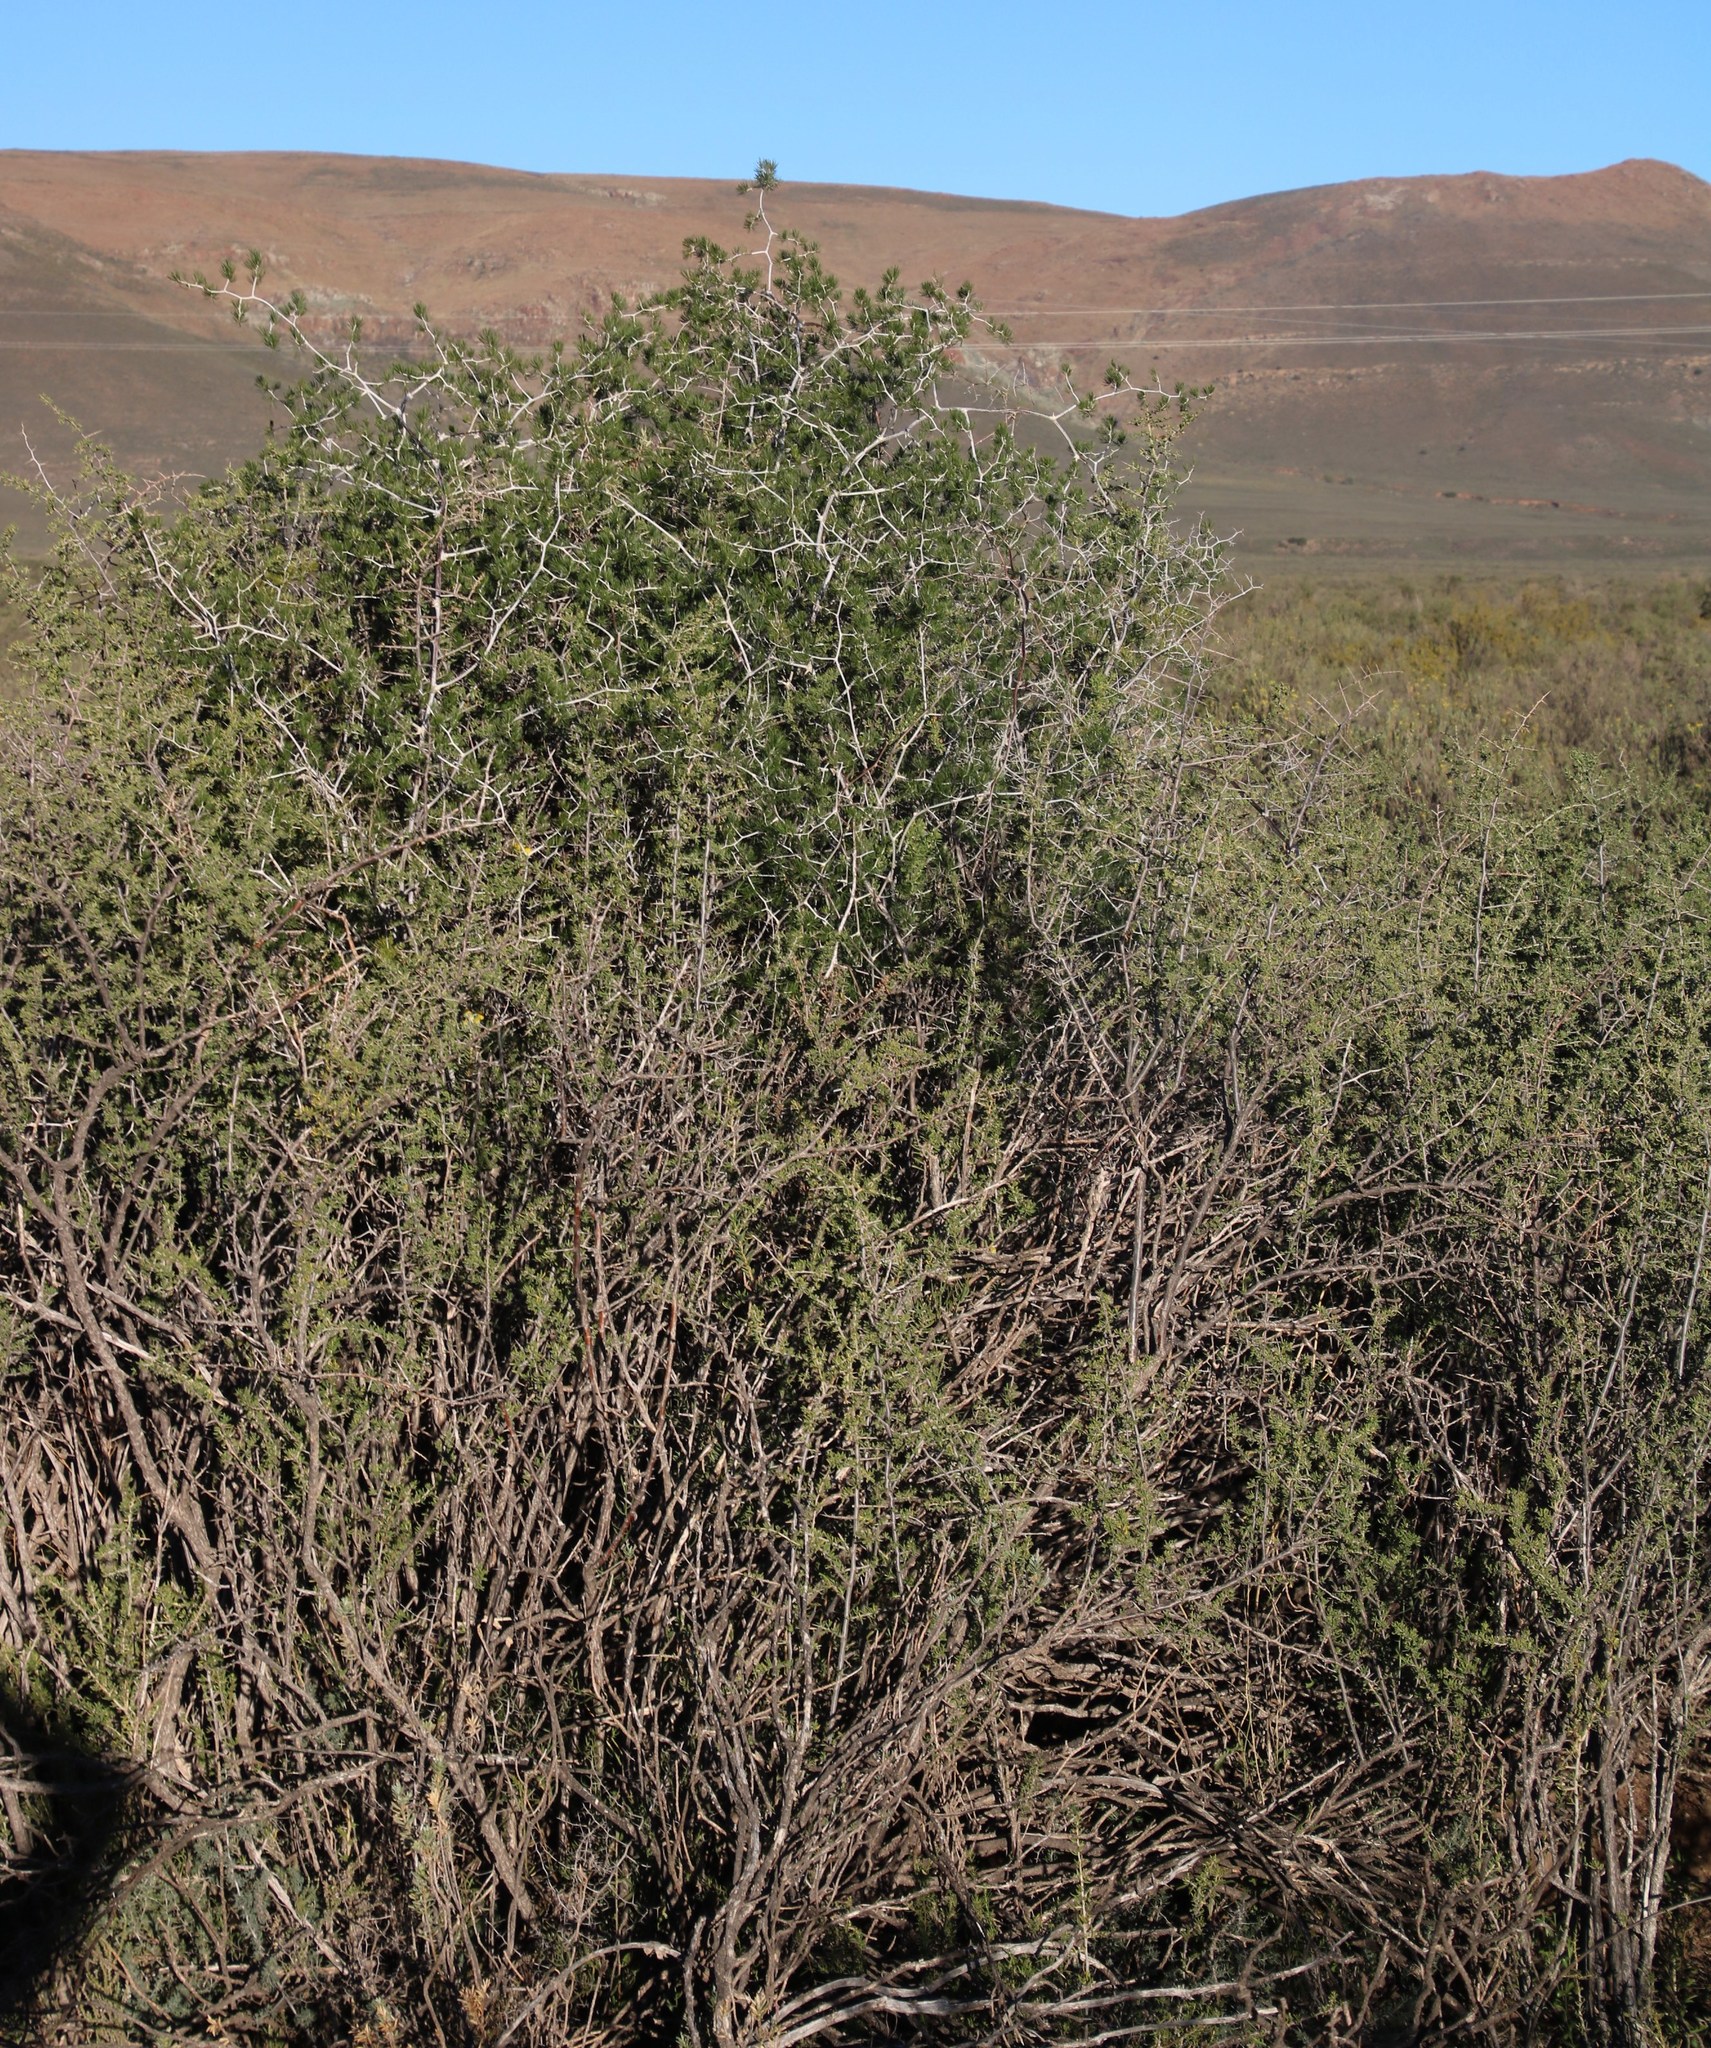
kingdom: Plantae
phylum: Tracheophyta
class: Liliopsida
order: Asparagales
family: Asparagaceae
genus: Asparagus
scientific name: Asparagus retrofractus
